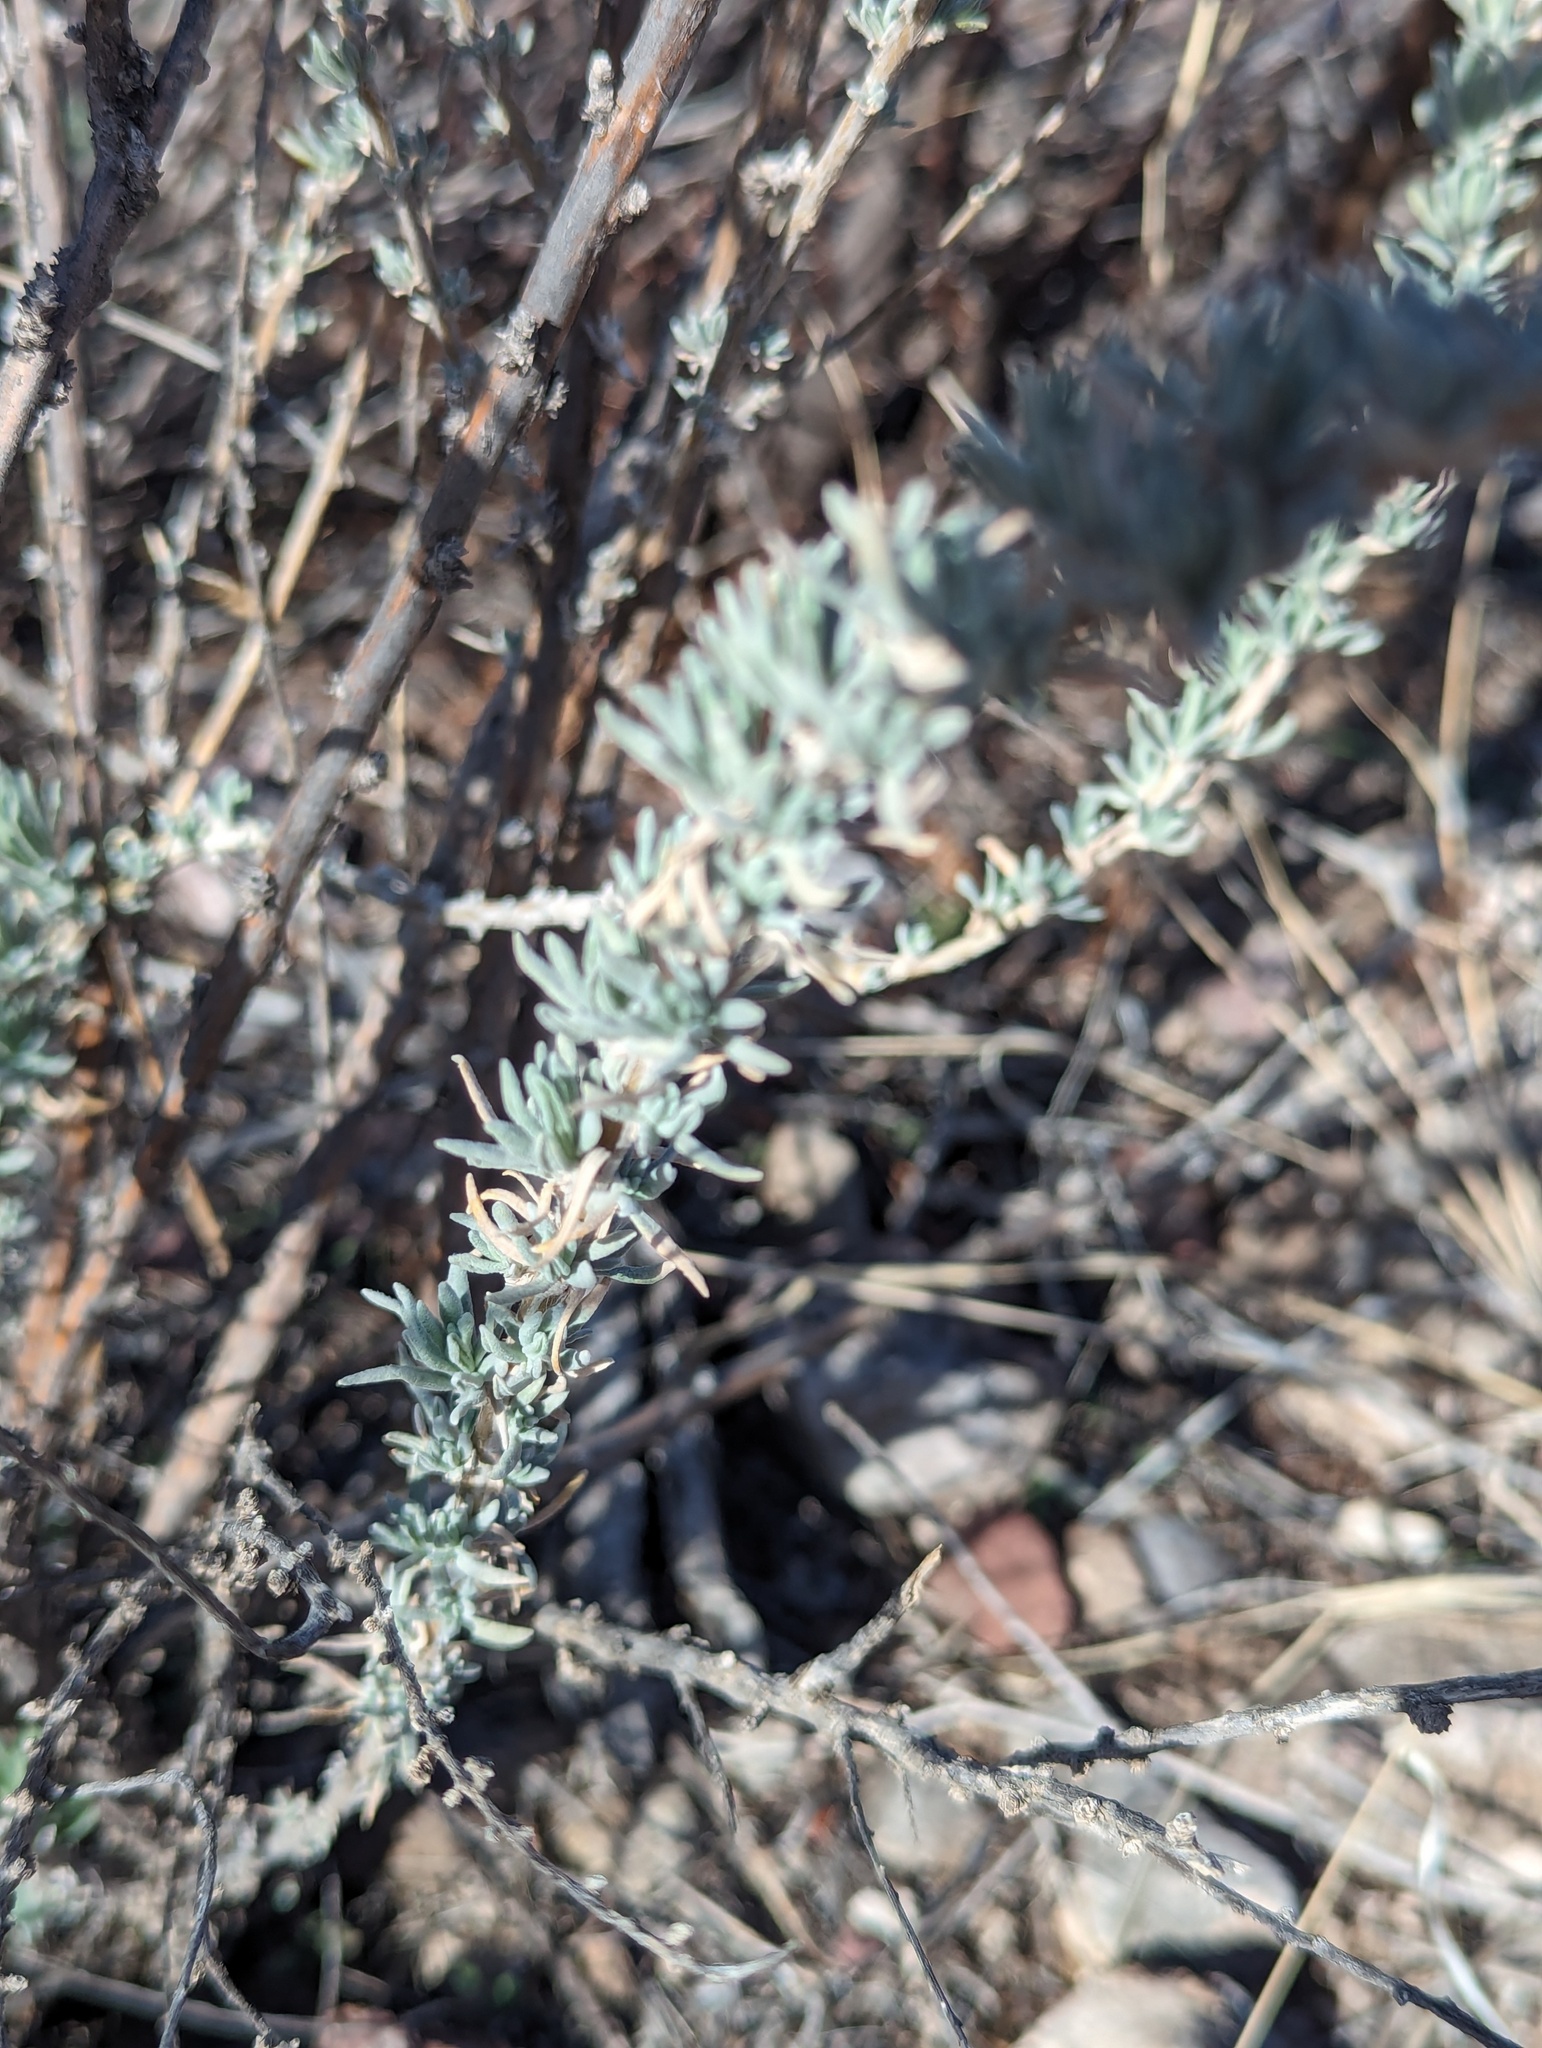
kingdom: Plantae
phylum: Tracheophyta
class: Magnoliopsida
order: Caryophyllales
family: Polygonaceae
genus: Eriogonum
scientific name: Eriogonum wrightii
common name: Bastard-sage
